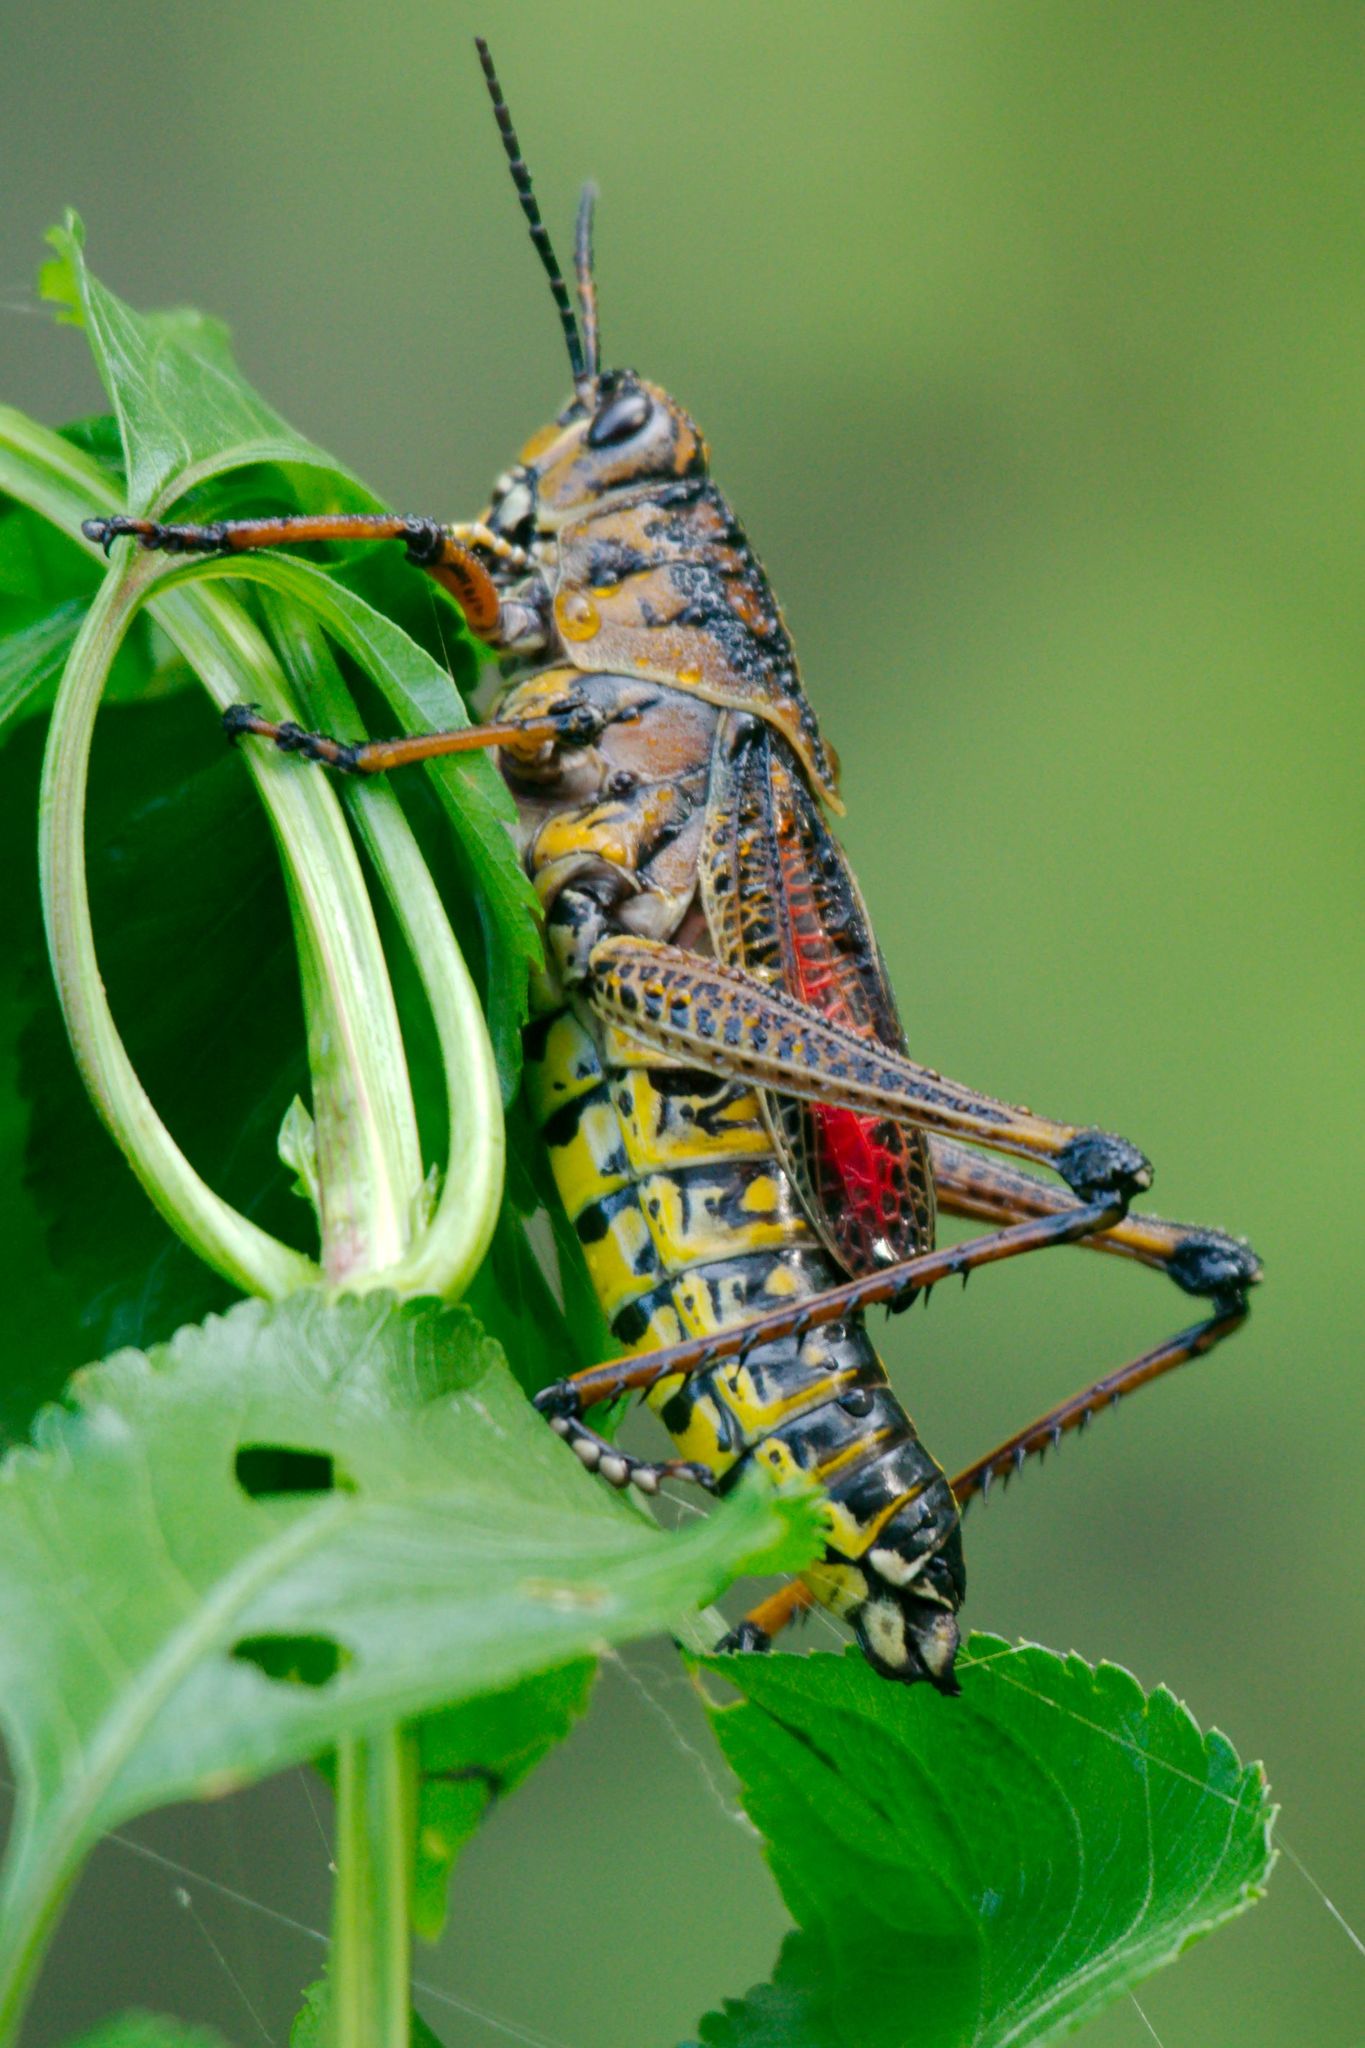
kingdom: Animalia
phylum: Arthropoda
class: Insecta
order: Orthoptera
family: Romaleidae
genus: Romalea
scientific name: Romalea microptera
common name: Eastern lubber grasshopper
